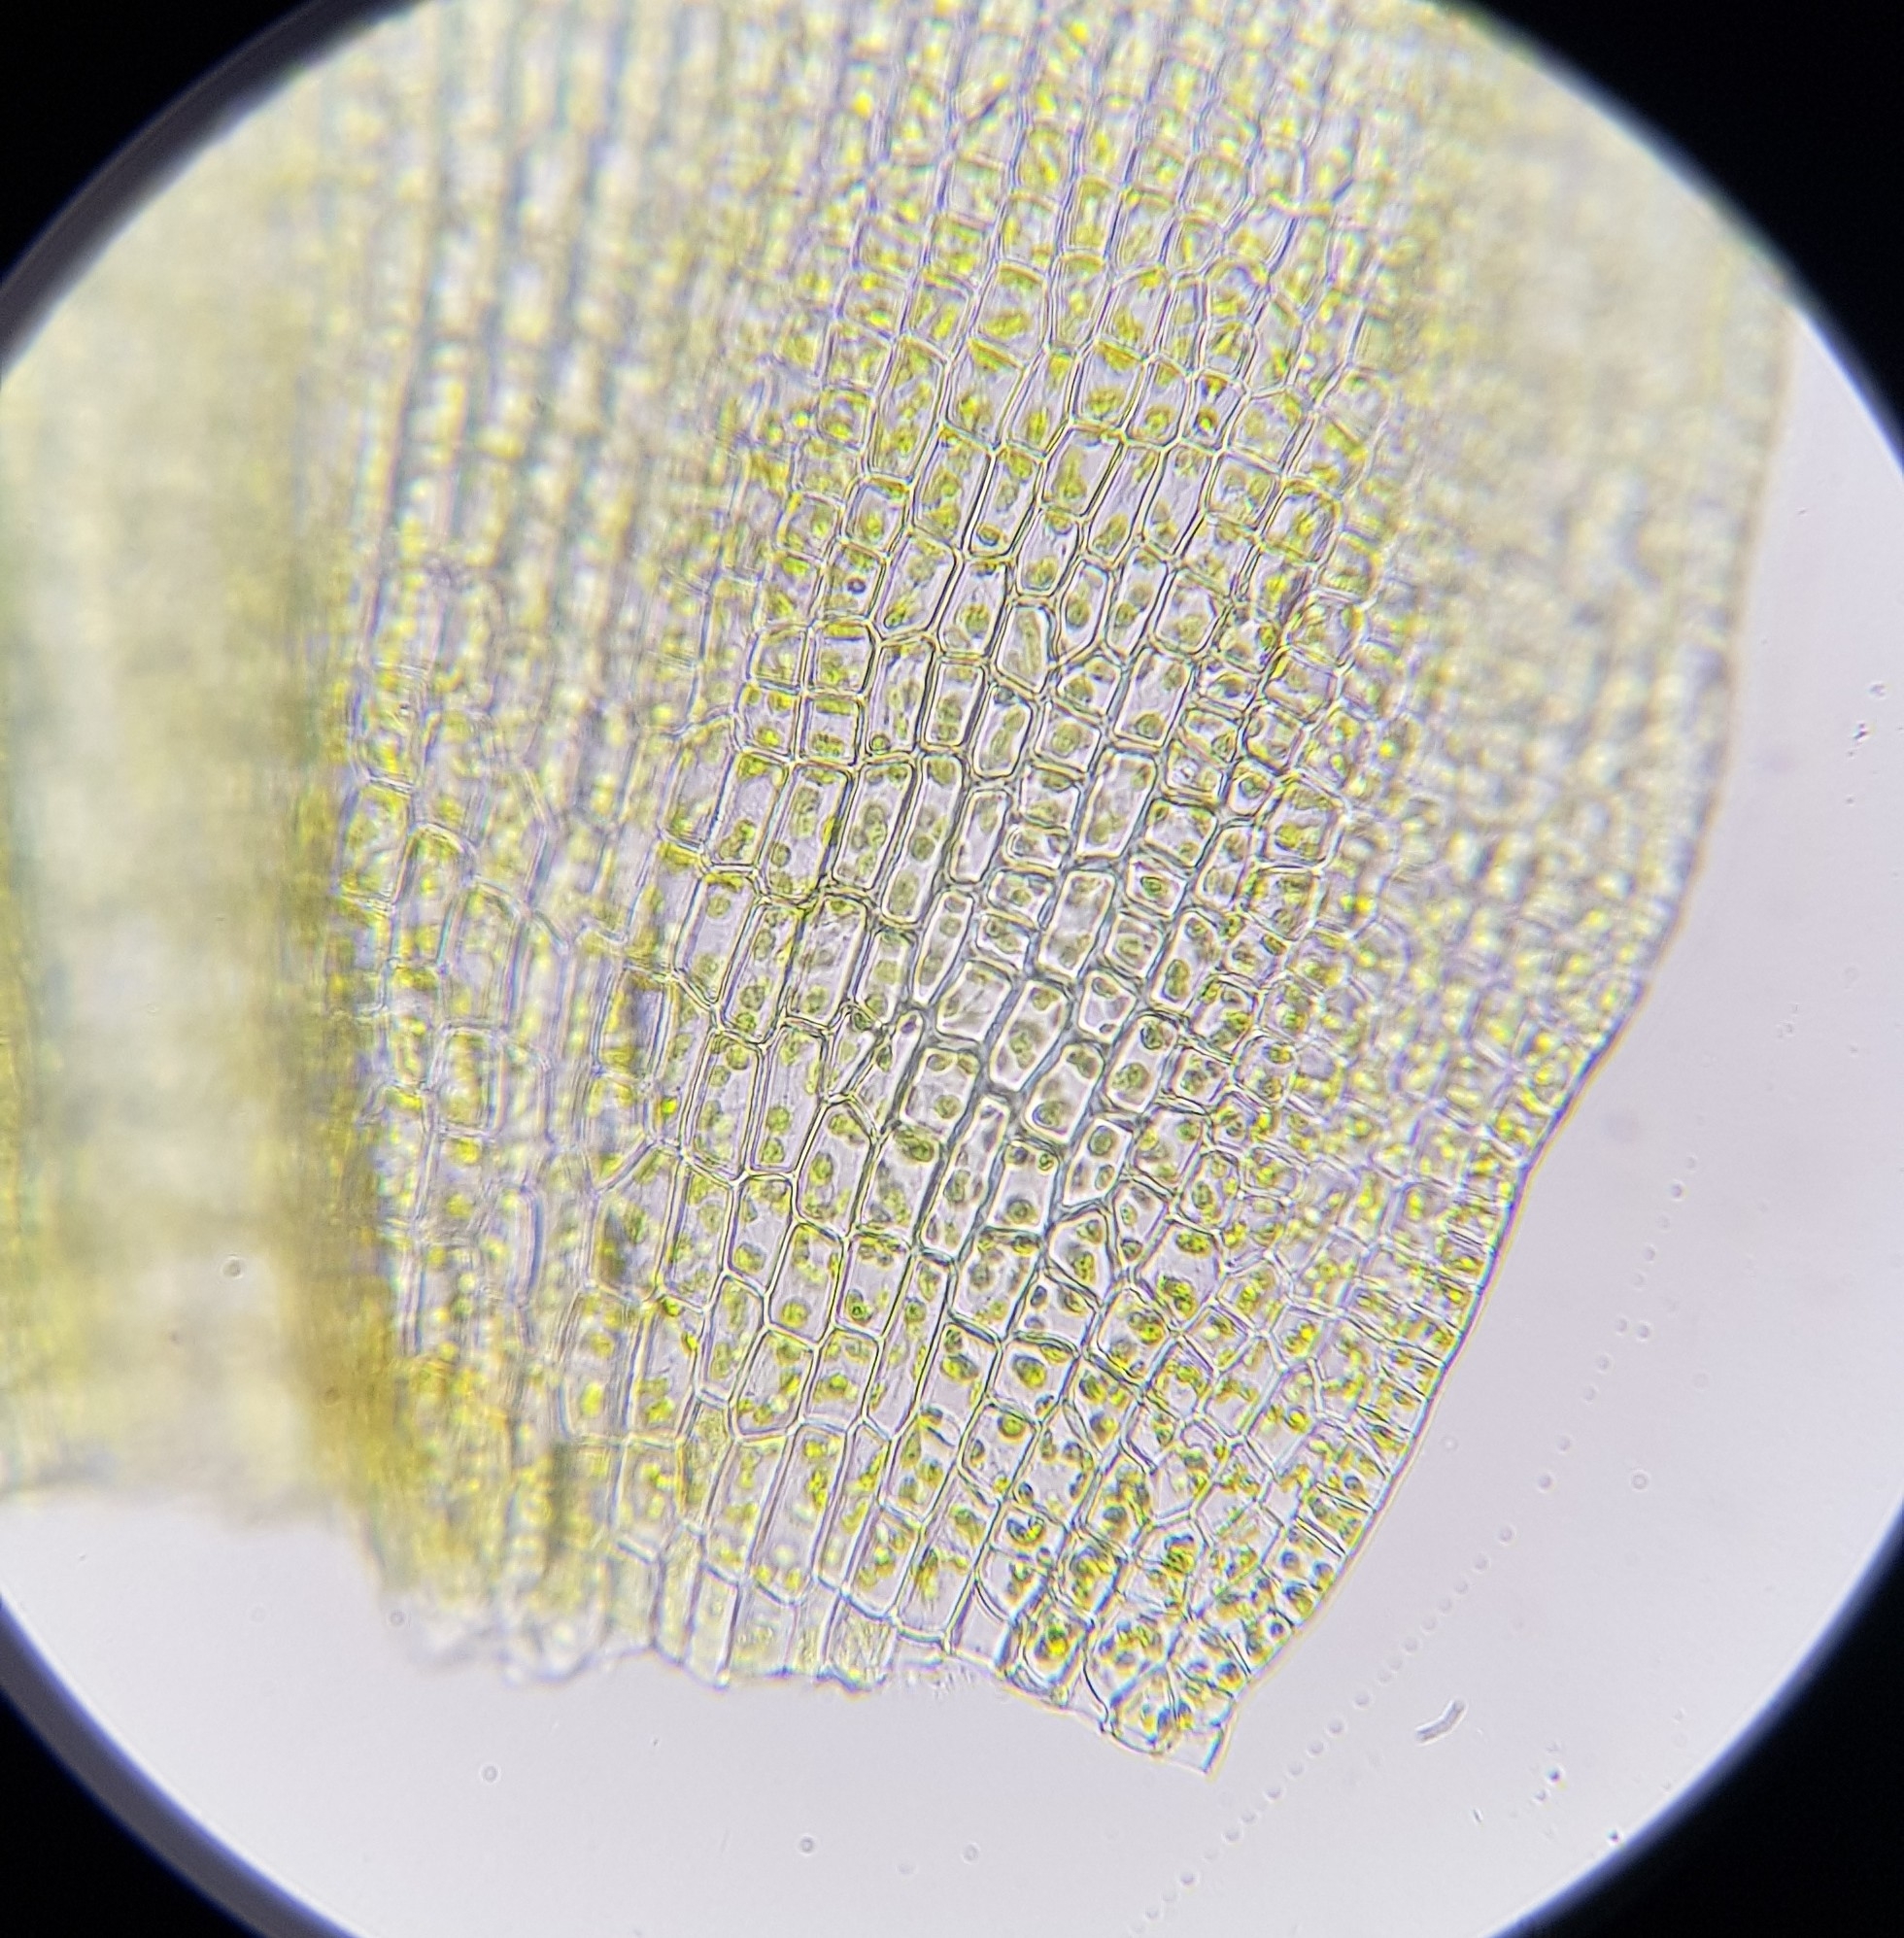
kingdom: Plantae
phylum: Bryophyta
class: Bryopsida
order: Pottiales
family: Pottiaceae
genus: Vinealobryum
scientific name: Vinealobryum insulanum
